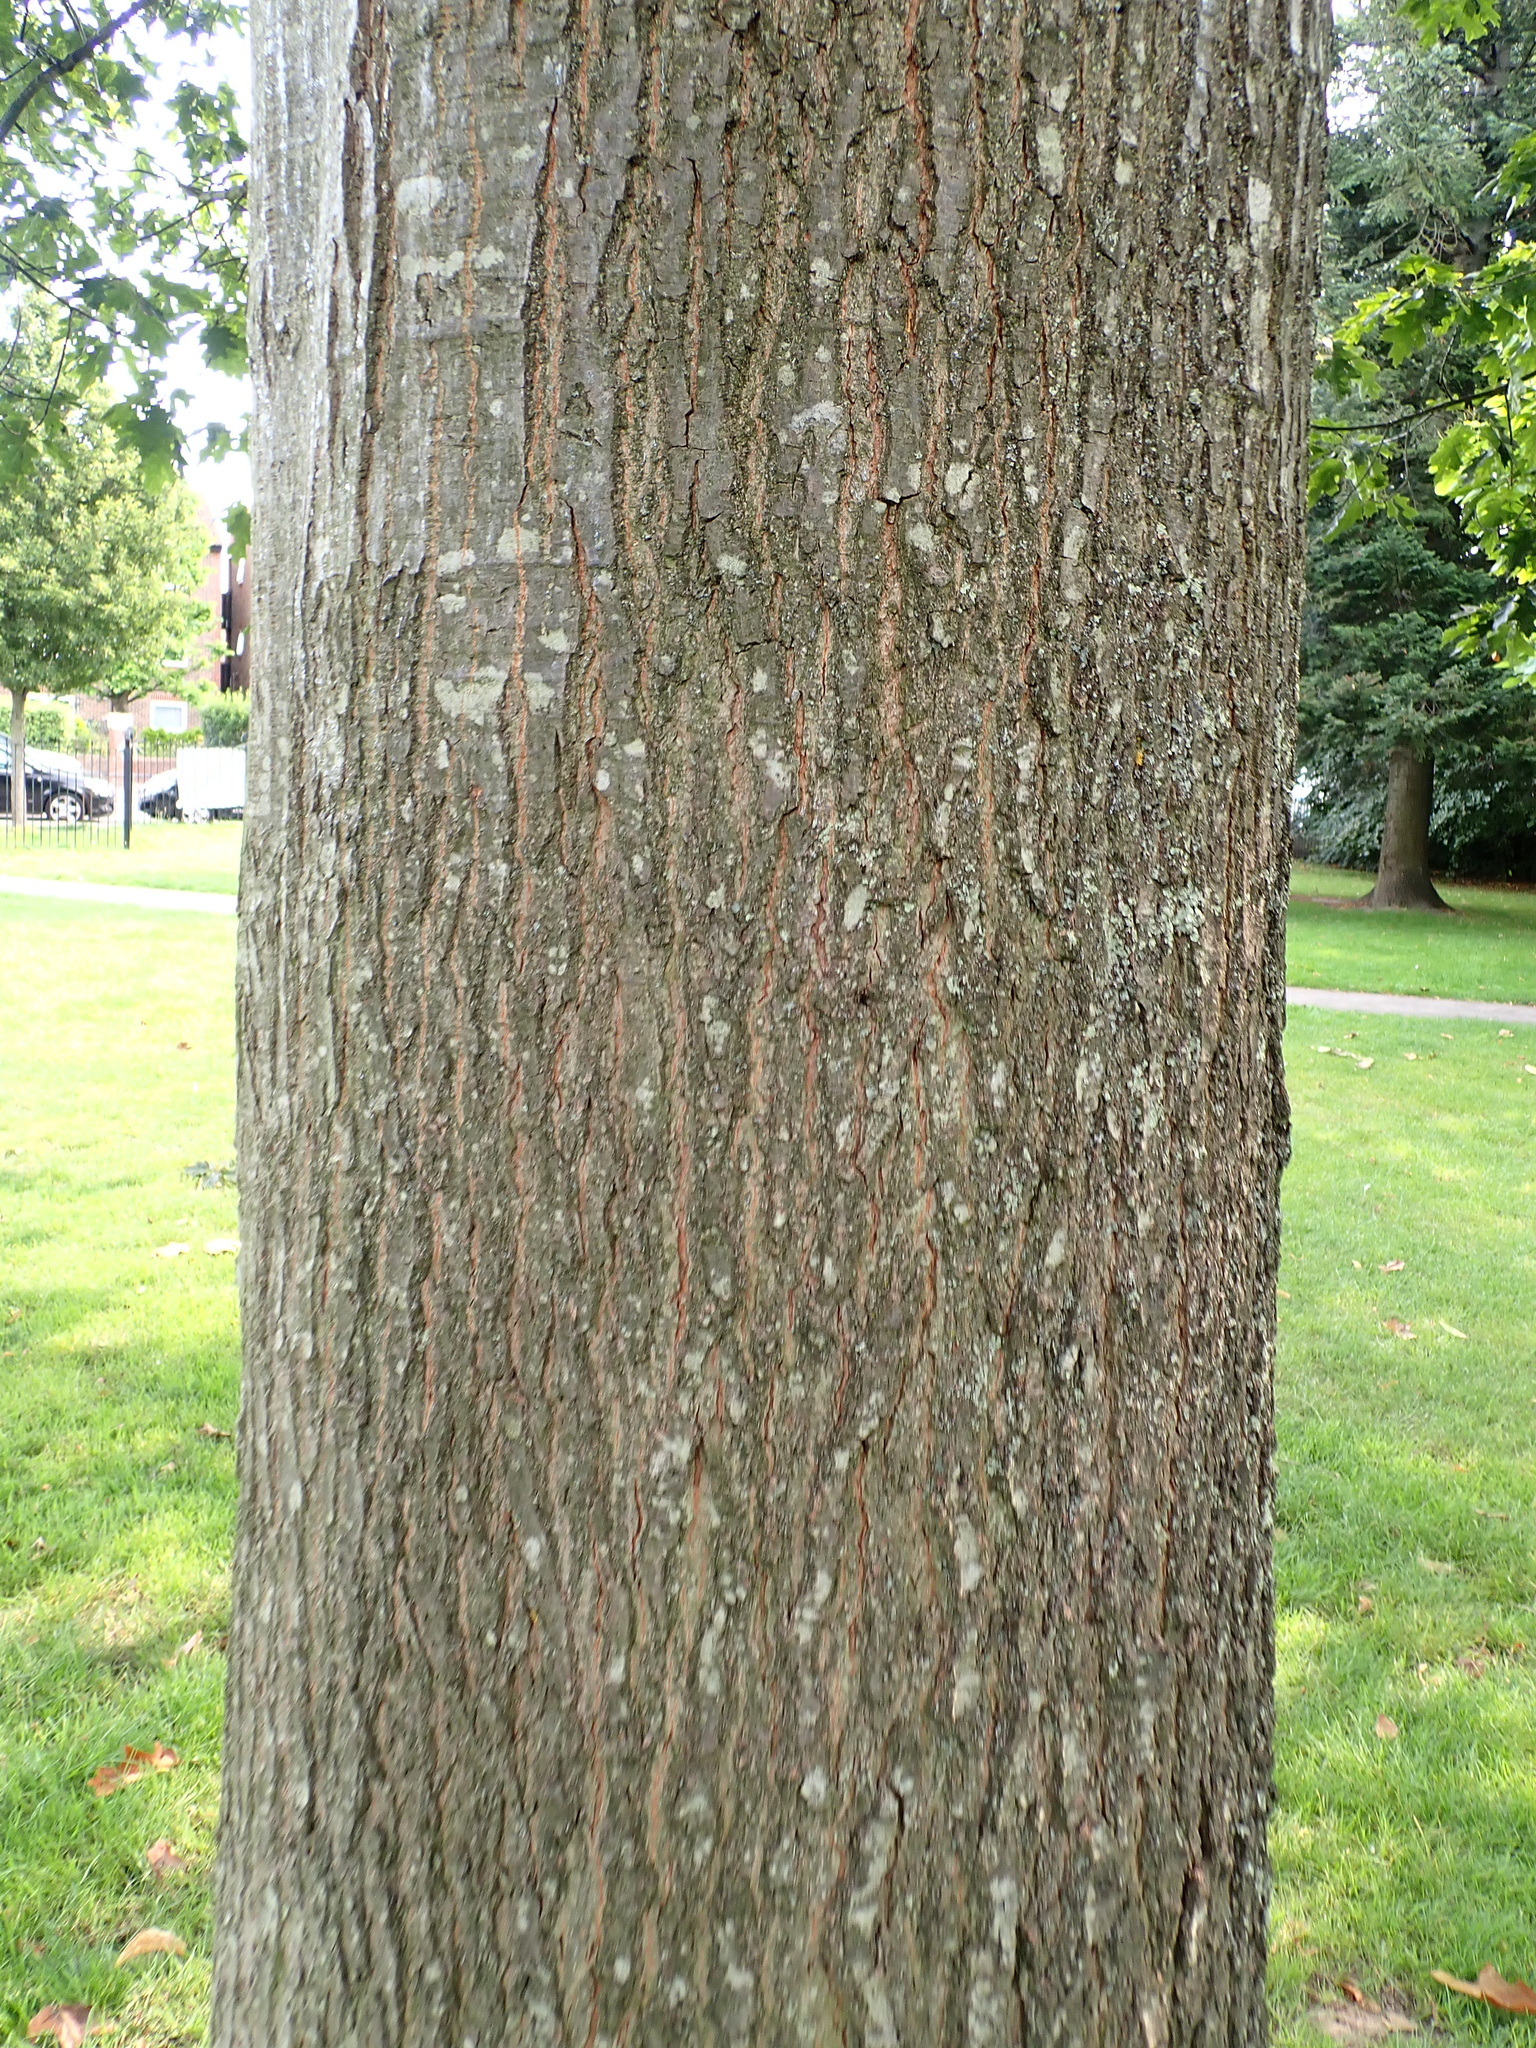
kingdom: Plantae
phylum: Tracheophyta
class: Magnoliopsida
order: Fagales
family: Fagaceae
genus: Quercus
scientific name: Quercus rubra
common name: Red oak
